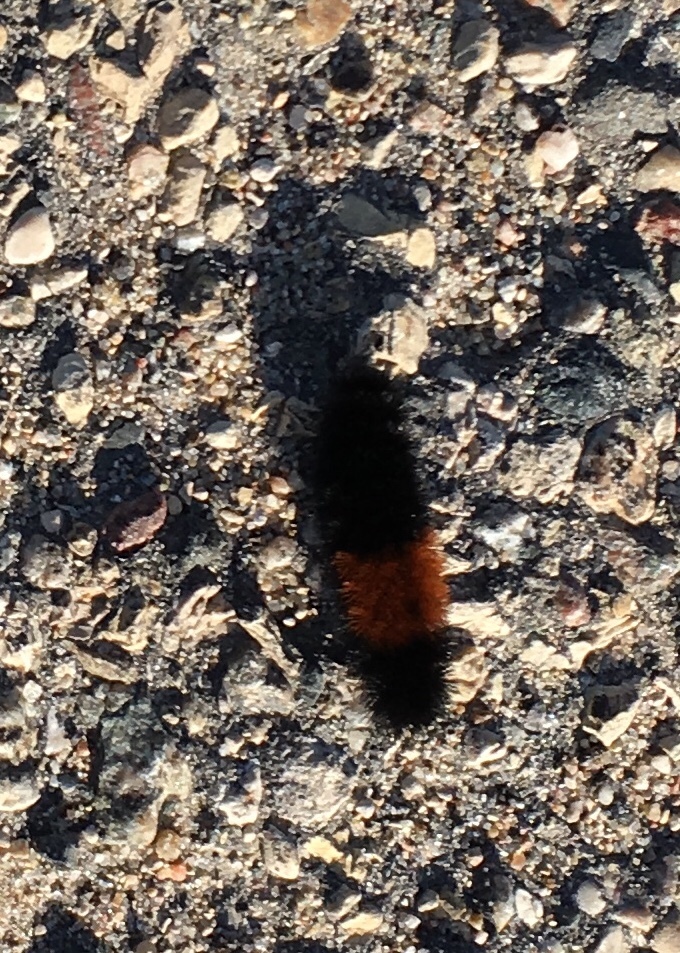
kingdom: Animalia
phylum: Arthropoda
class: Insecta
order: Lepidoptera
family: Erebidae
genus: Pyrrharctia
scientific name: Pyrrharctia isabella
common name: Isabella tiger moth
